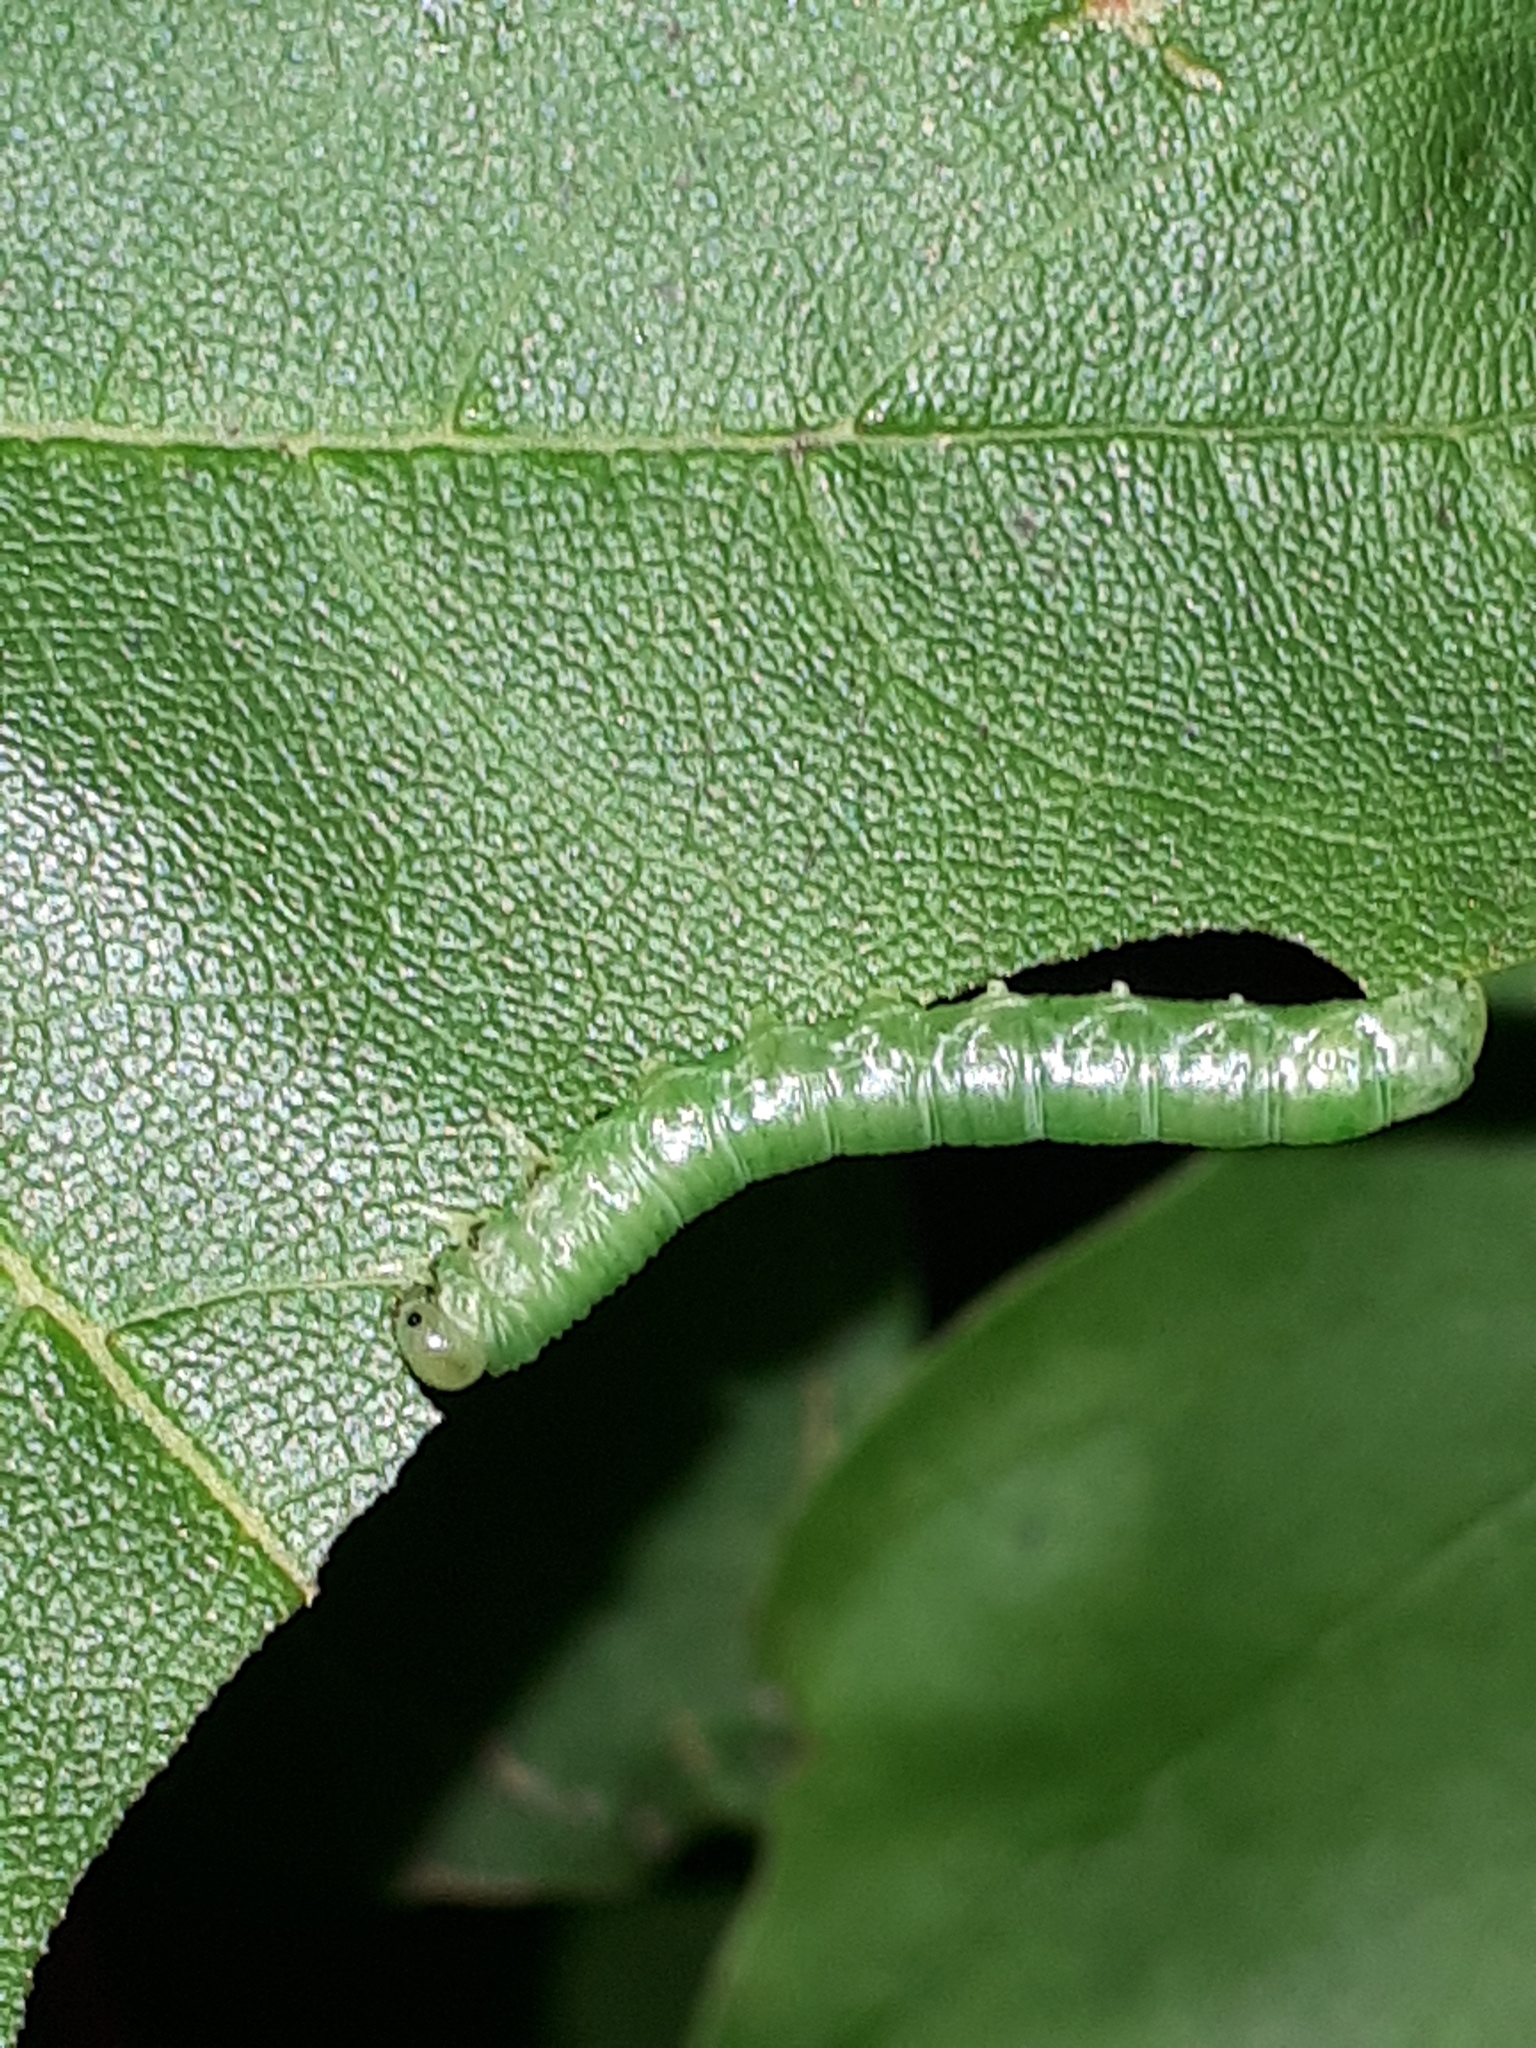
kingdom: Animalia
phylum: Arthropoda
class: Insecta
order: Hymenoptera
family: Tenthredinidae
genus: Pristiphora
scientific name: Pristiphora subbifida
